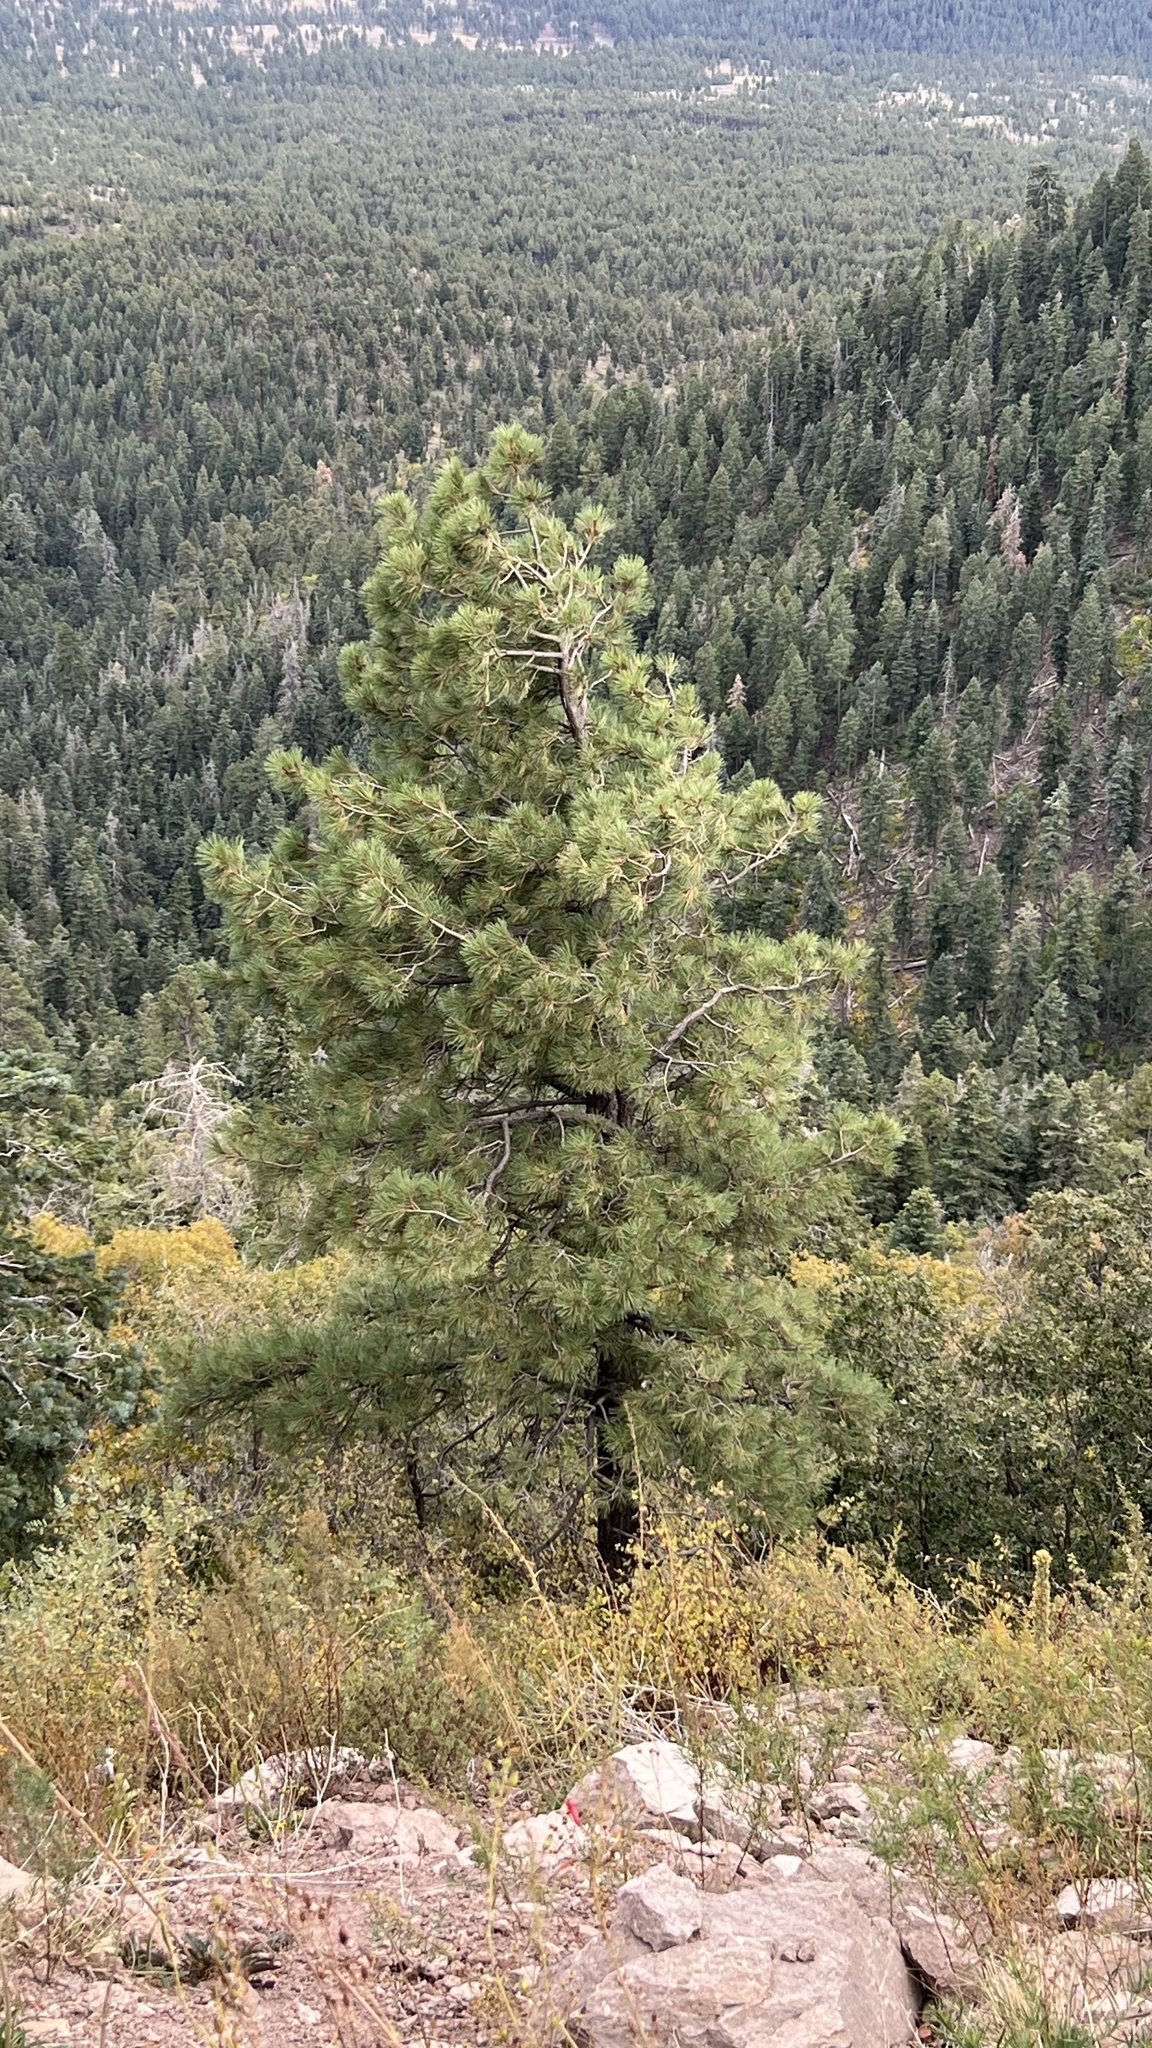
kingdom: Plantae
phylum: Tracheophyta
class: Pinopsida
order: Pinales
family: Pinaceae
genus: Pinus
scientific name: Pinus ponderosa
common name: Western yellow-pine
